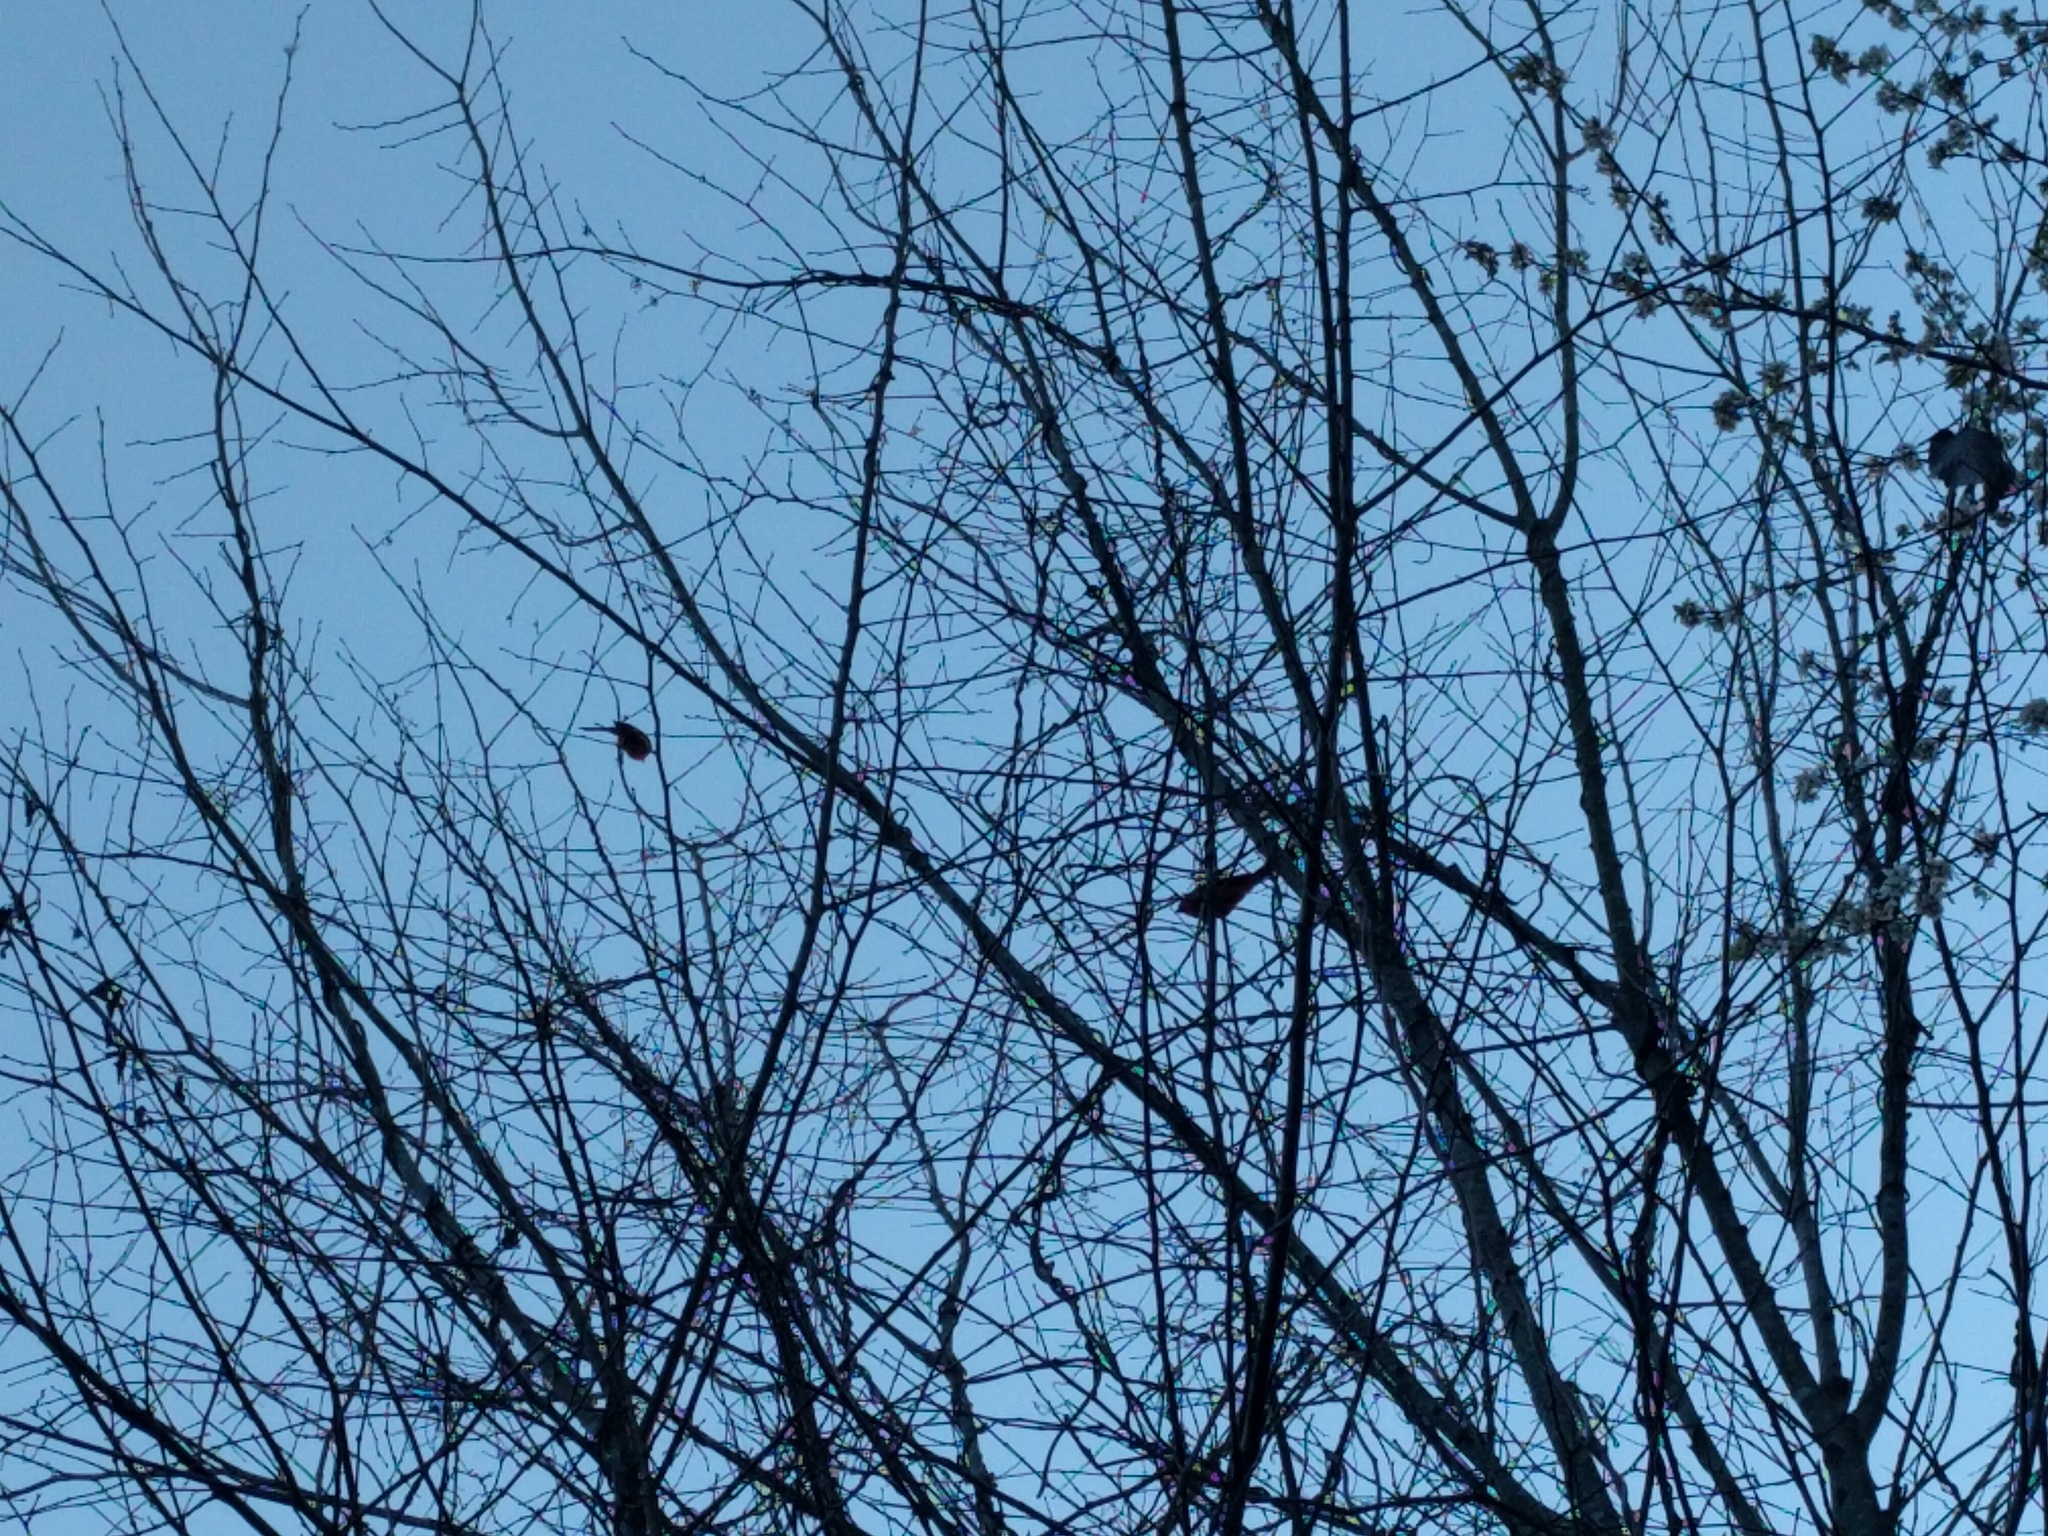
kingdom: Animalia
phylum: Chordata
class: Aves
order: Passeriformes
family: Cardinalidae
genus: Cardinalis
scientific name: Cardinalis cardinalis
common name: Northern cardinal
